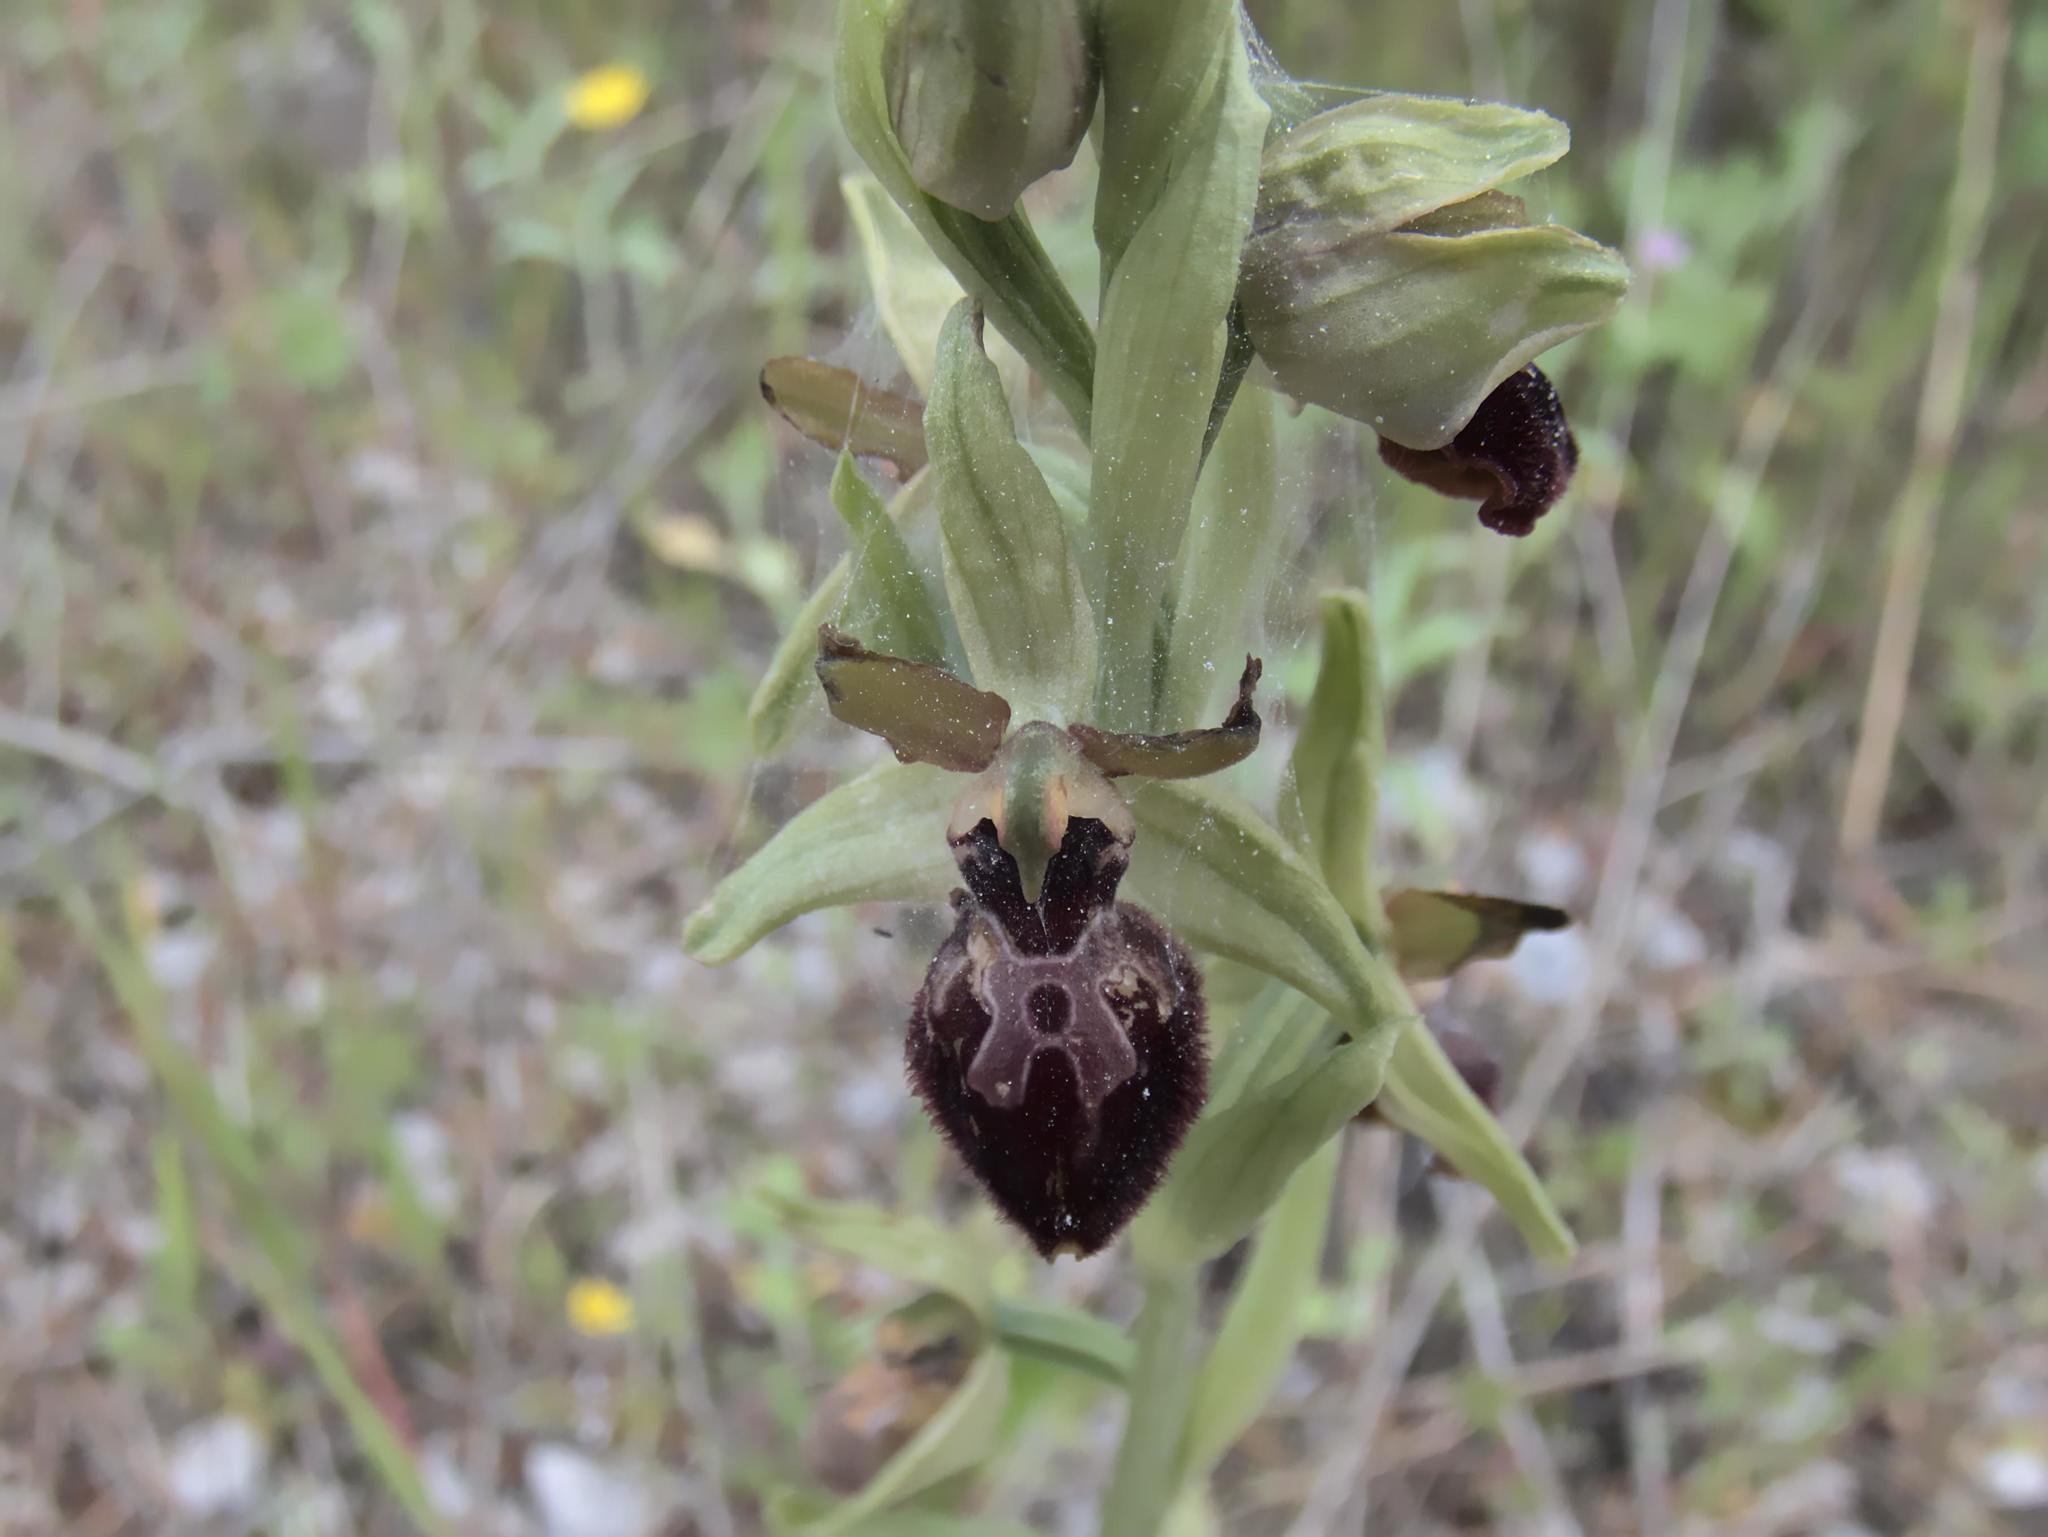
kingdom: Plantae
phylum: Tracheophyta
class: Liliopsida
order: Asparagales
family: Orchidaceae
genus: Ophrys
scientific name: Ophrys sphegodes
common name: Early spider-orchid
